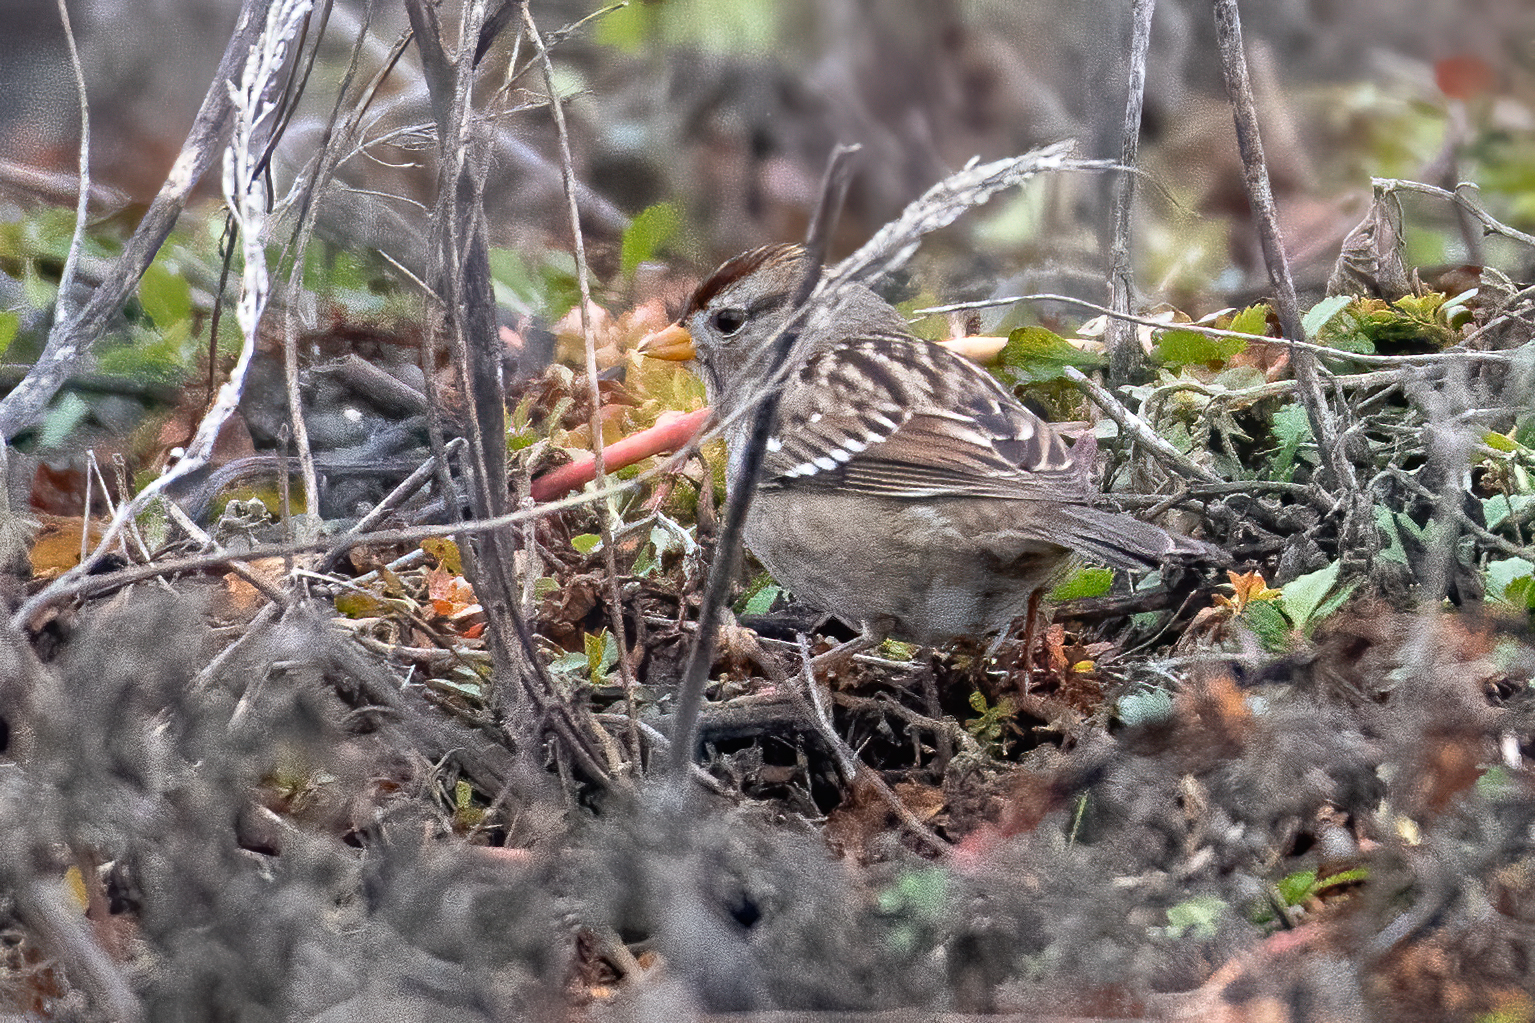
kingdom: Animalia
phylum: Chordata
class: Aves
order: Passeriformes
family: Passerellidae
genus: Zonotrichia
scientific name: Zonotrichia leucophrys
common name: White-crowned sparrow
